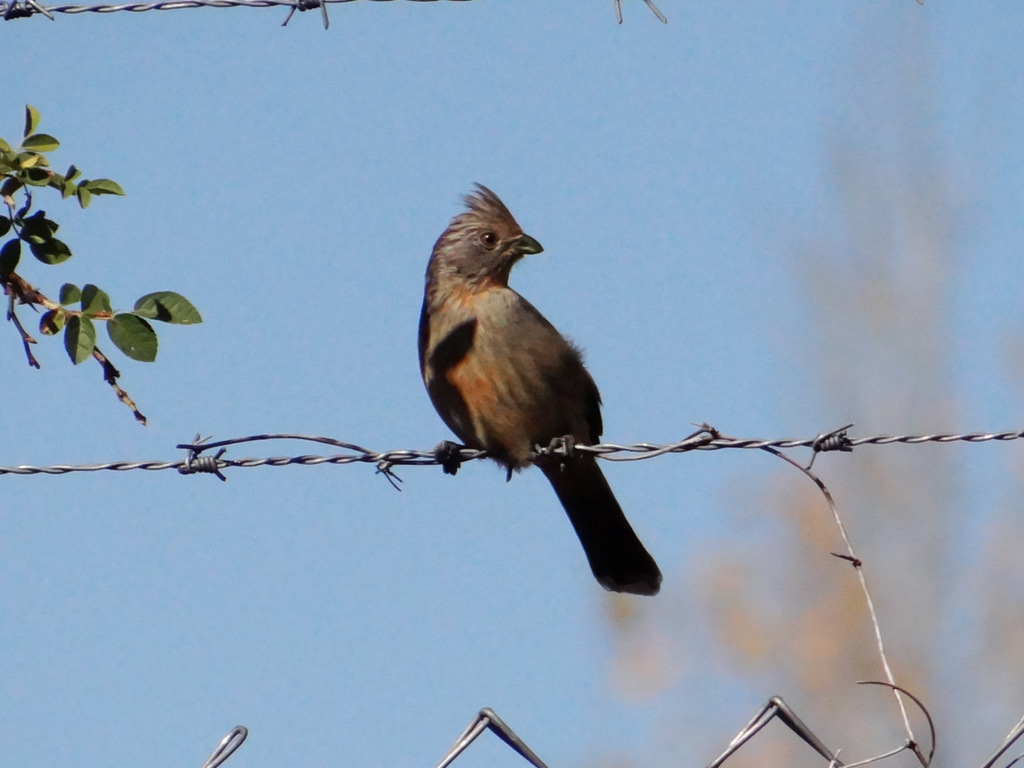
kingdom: Animalia
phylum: Chordata
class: Aves
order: Passeriformes
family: Cotingidae
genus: Phytotoma
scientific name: Phytotoma rutila
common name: White-tipped plantcutter
